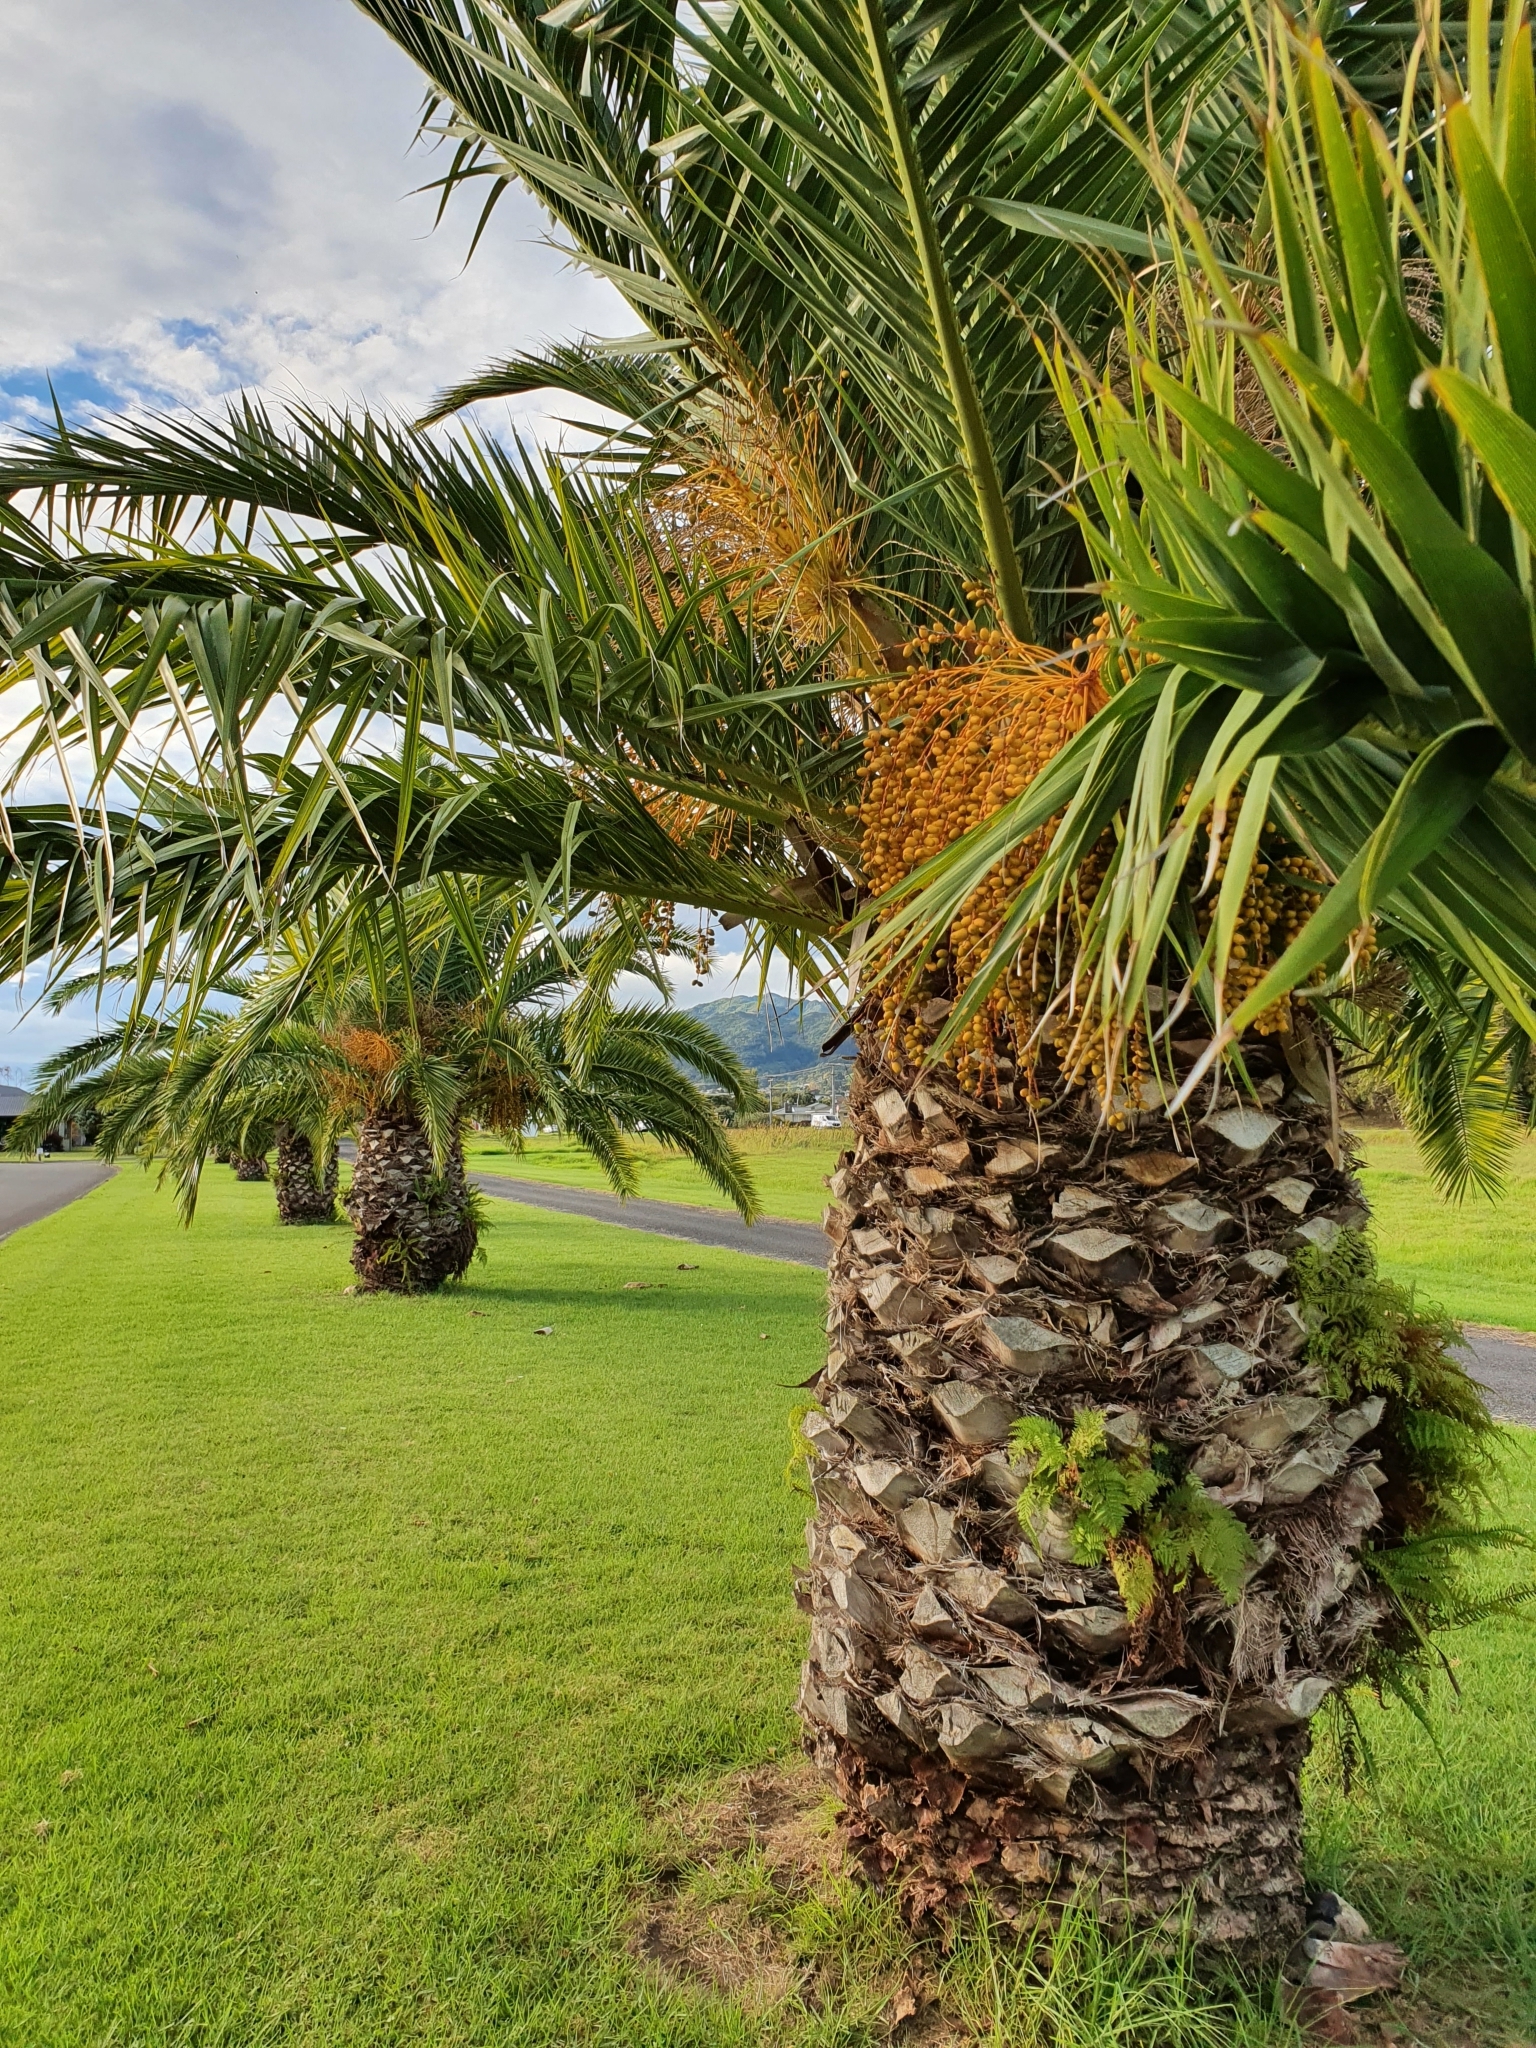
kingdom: Plantae
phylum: Tracheophyta
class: Liliopsida
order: Arecales
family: Arecaceae
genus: Phoenix
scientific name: Phoenix canariensis
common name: Canary island date palm
